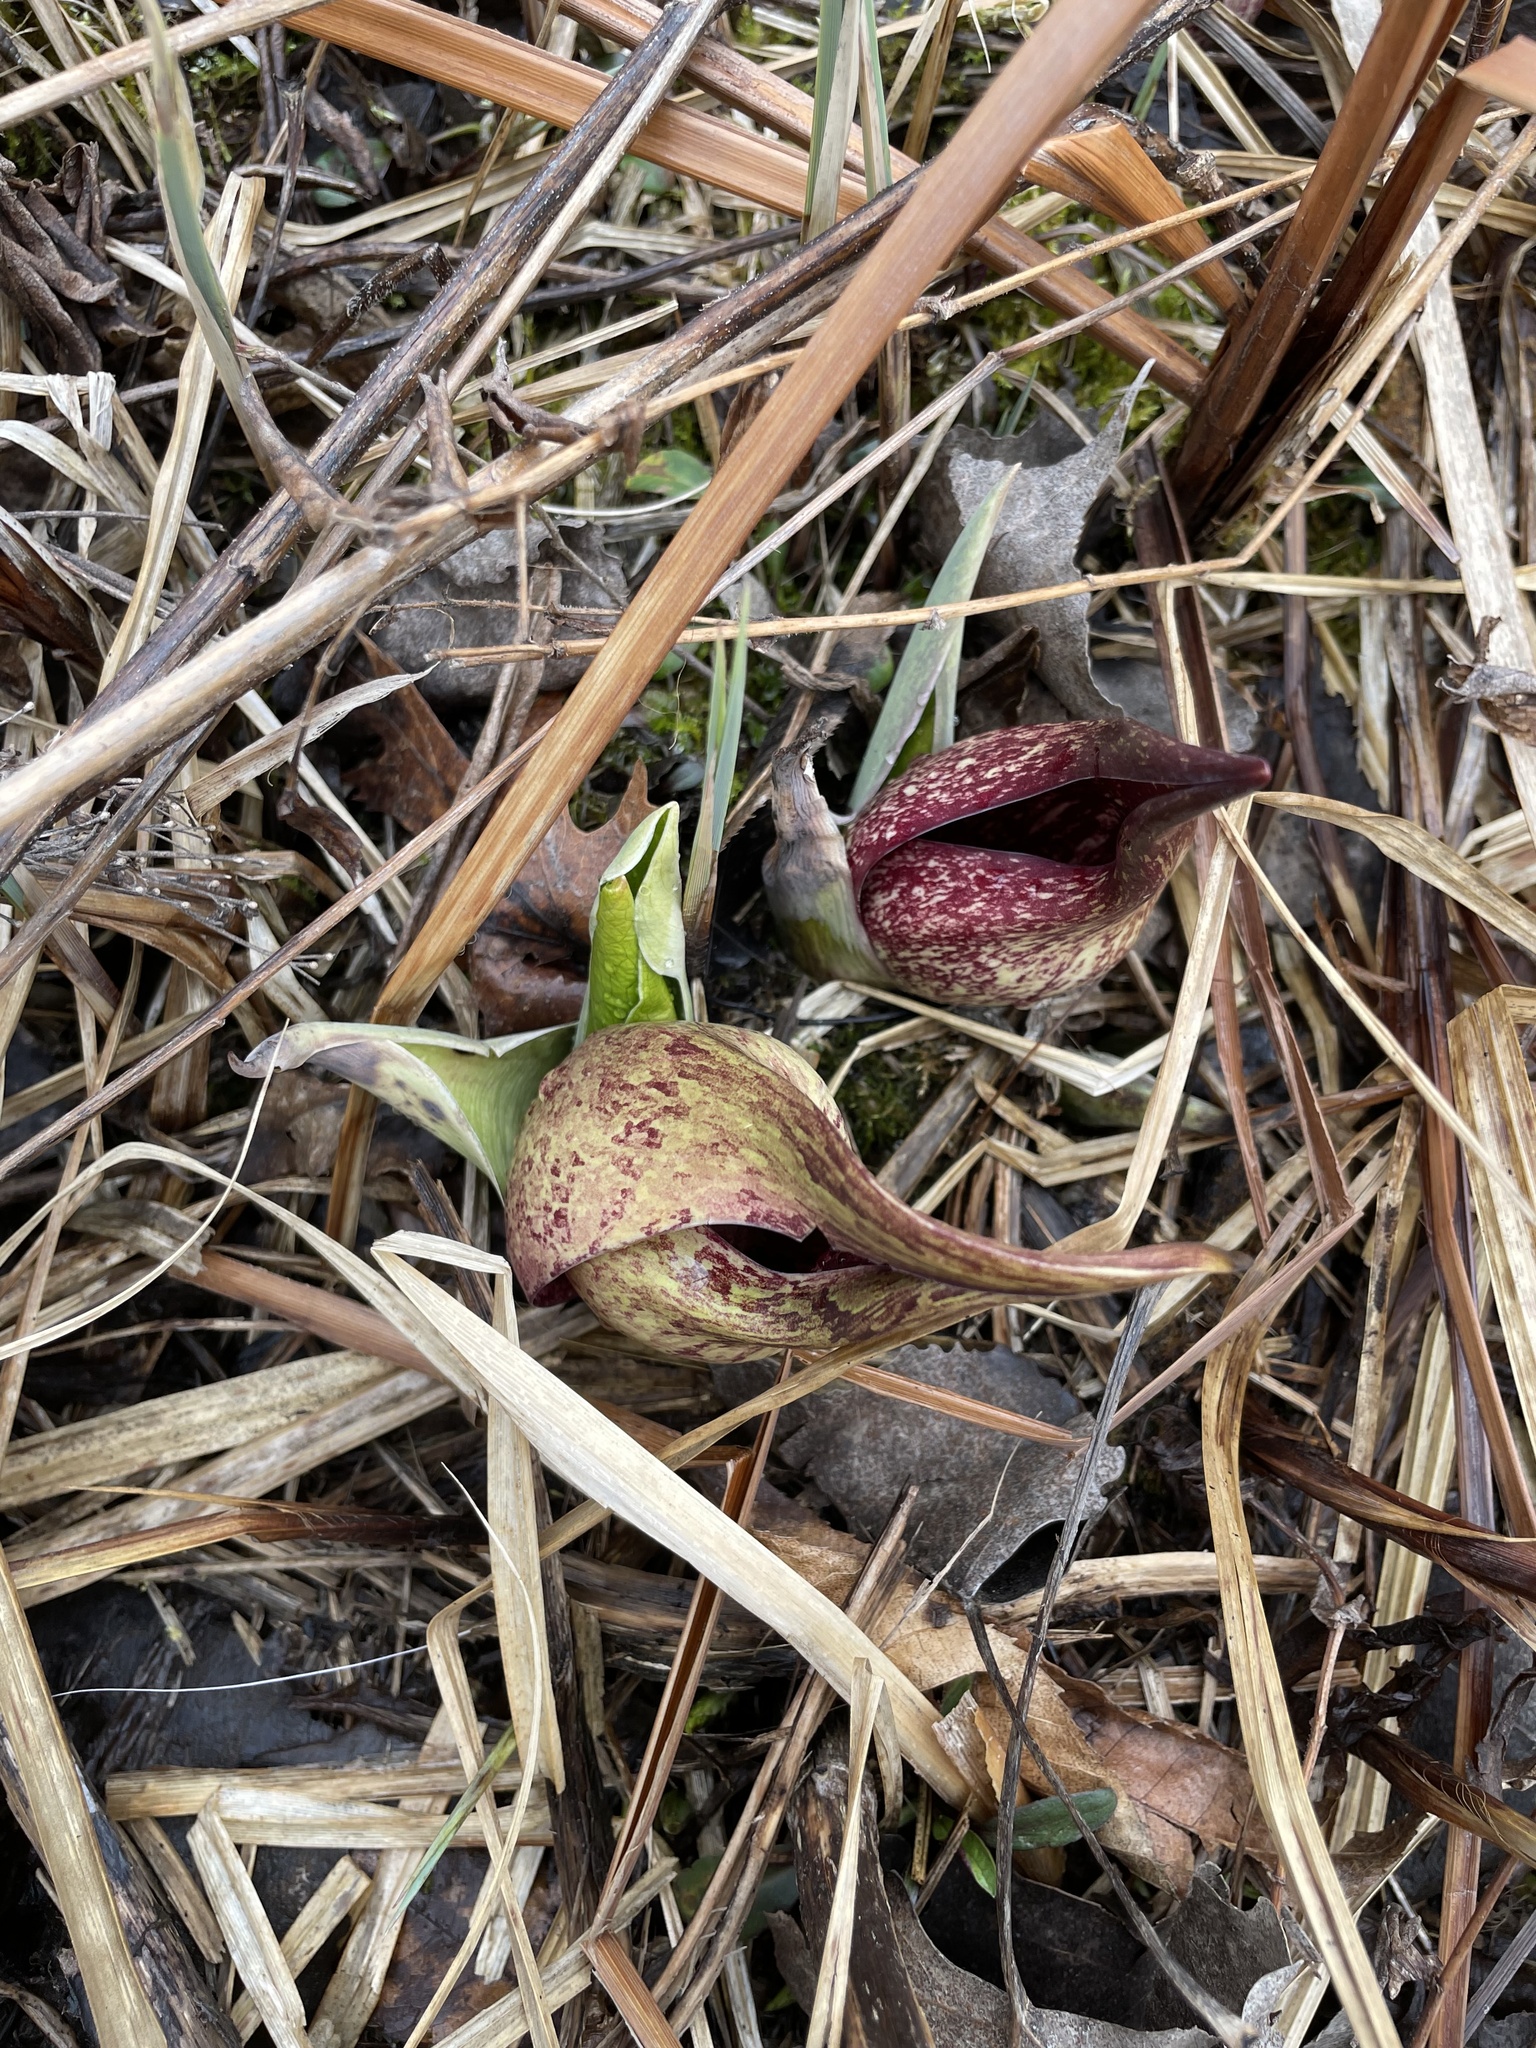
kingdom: Plantae
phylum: Tracheophyta
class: Liliopsida
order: Alismatales
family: Araceae
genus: Symplocarpus
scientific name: Symplocarpus foetidus
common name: Eastern skunk cabbage
